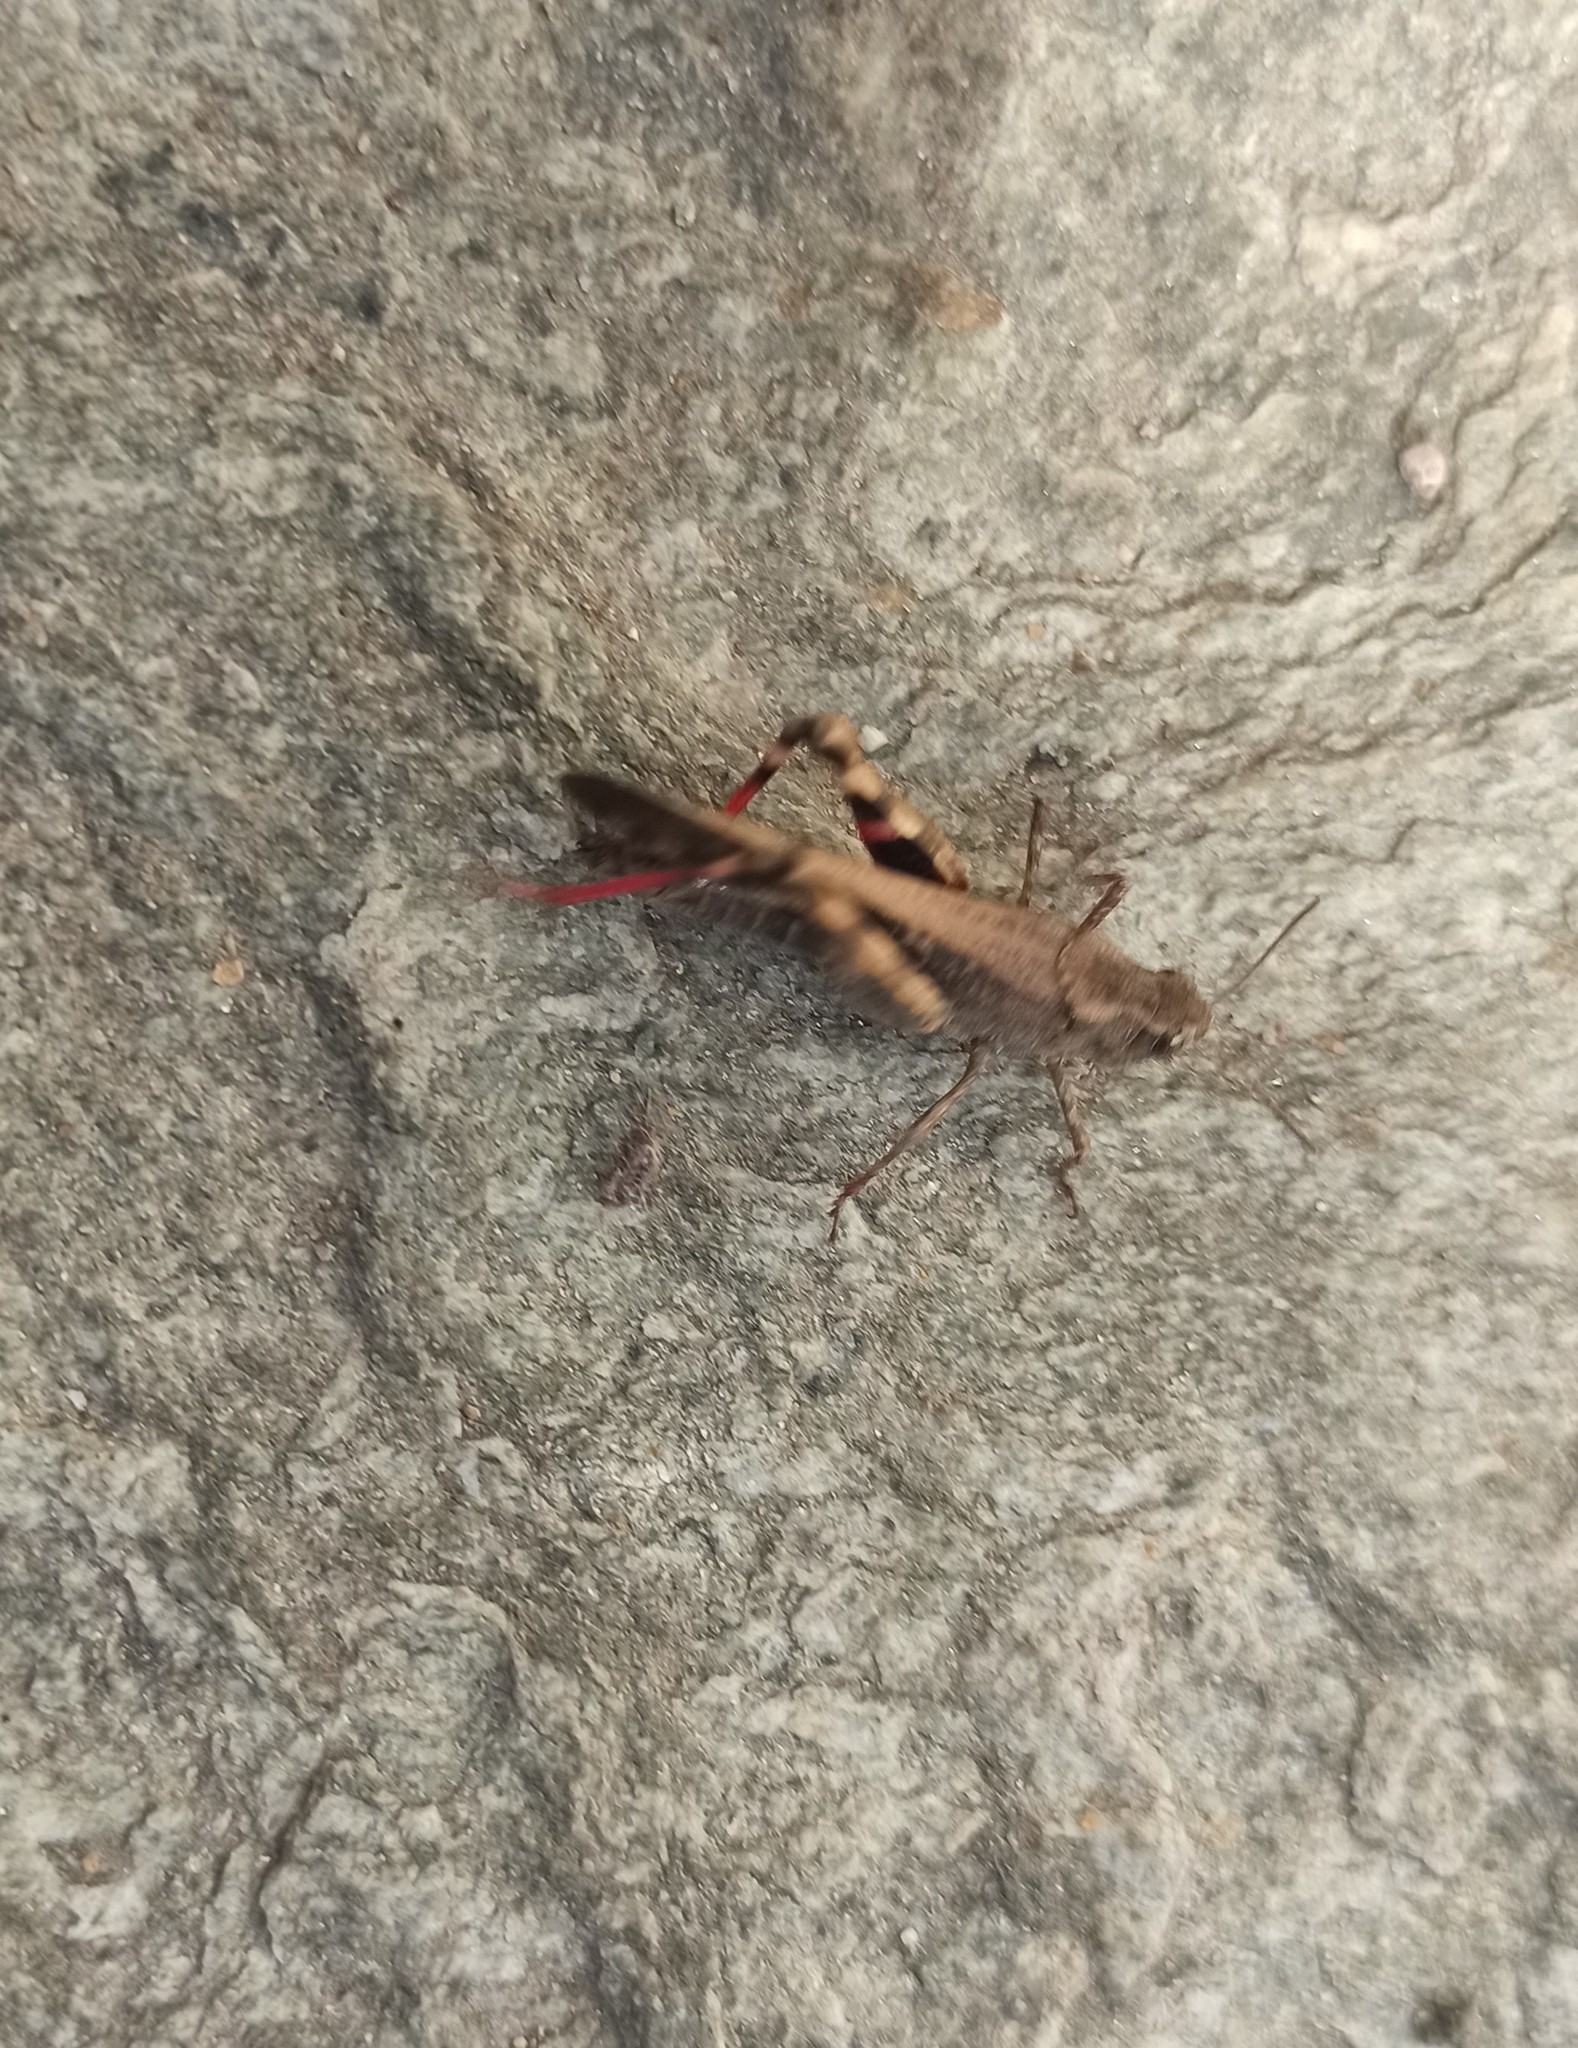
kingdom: Animalia
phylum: Arthropoda
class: Insecta
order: Orthoptera
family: Acrididae
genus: Aiolopus
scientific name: Aiolopus strepens
